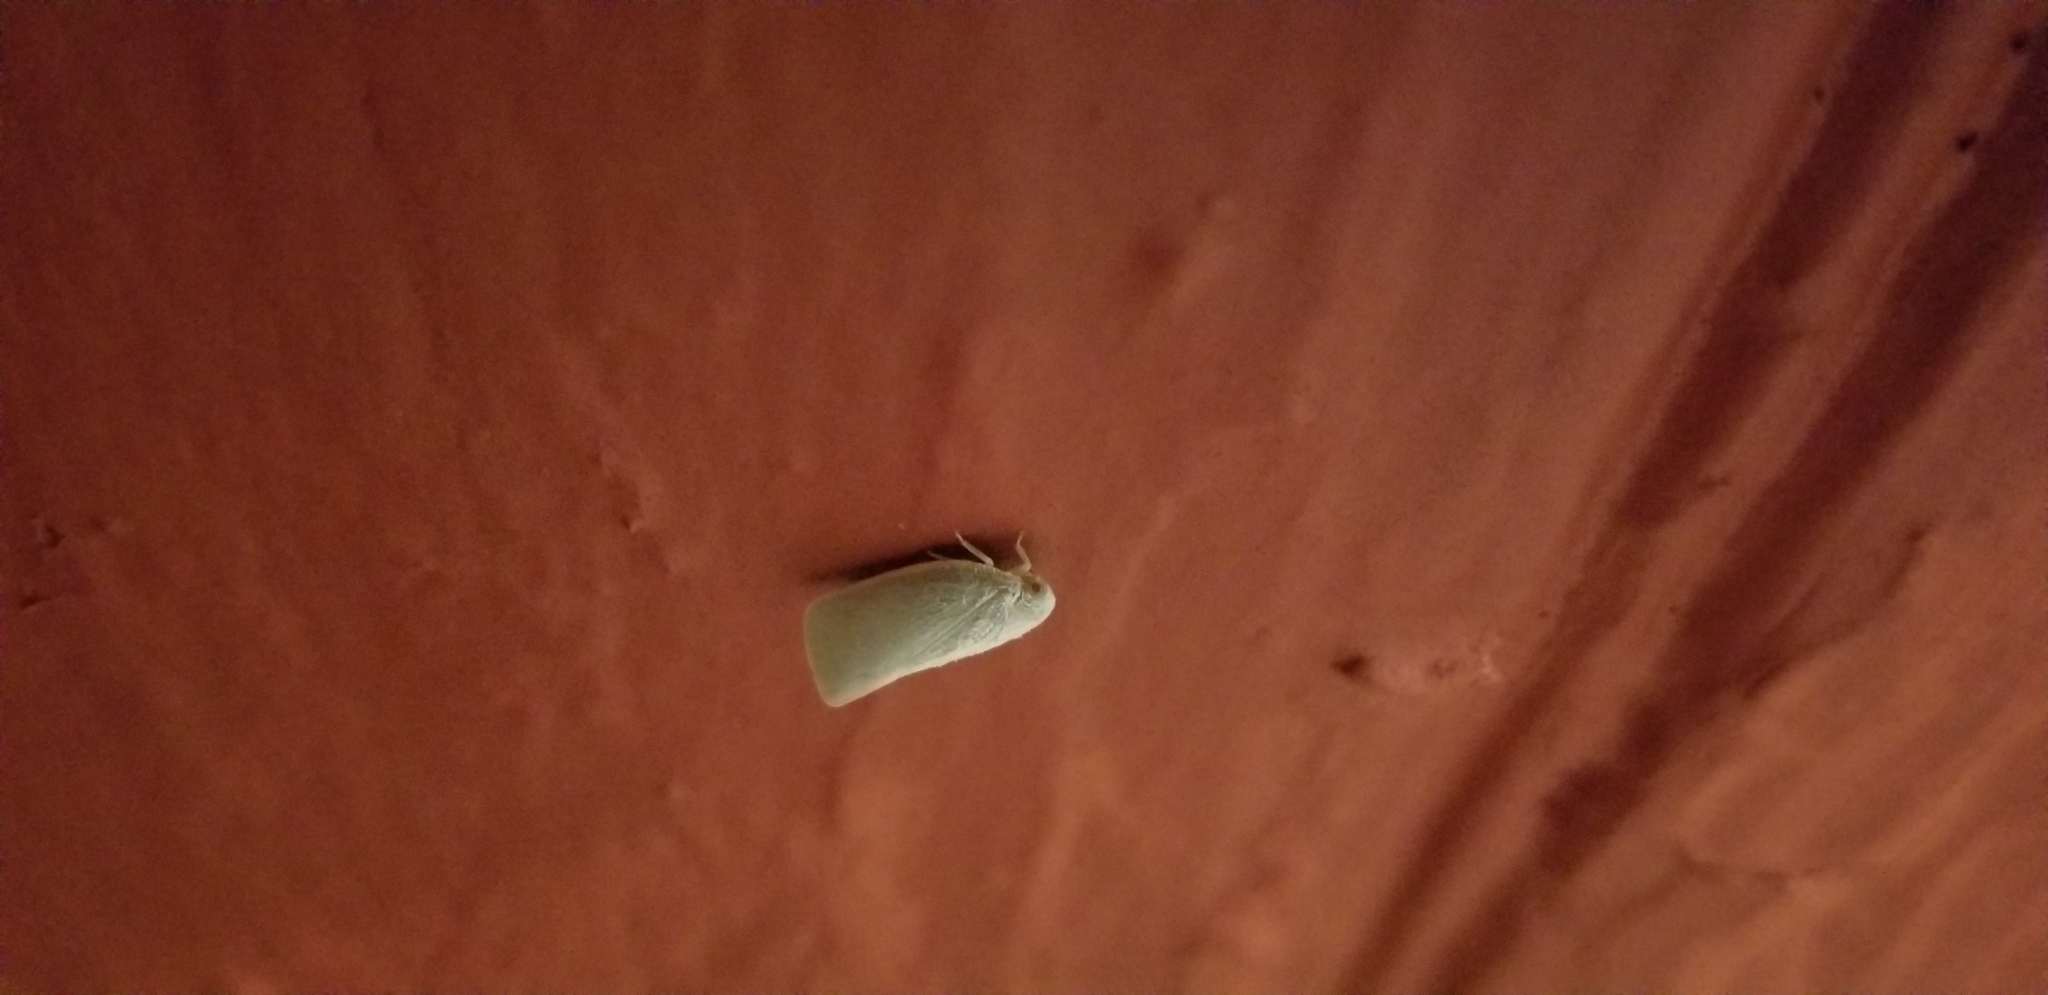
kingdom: Animalia
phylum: Arthropoda
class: Insecta
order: Hemiptera
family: Flatidae
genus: Flatormenis
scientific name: Flatormenis proxima
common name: Northern flatid planthopper
